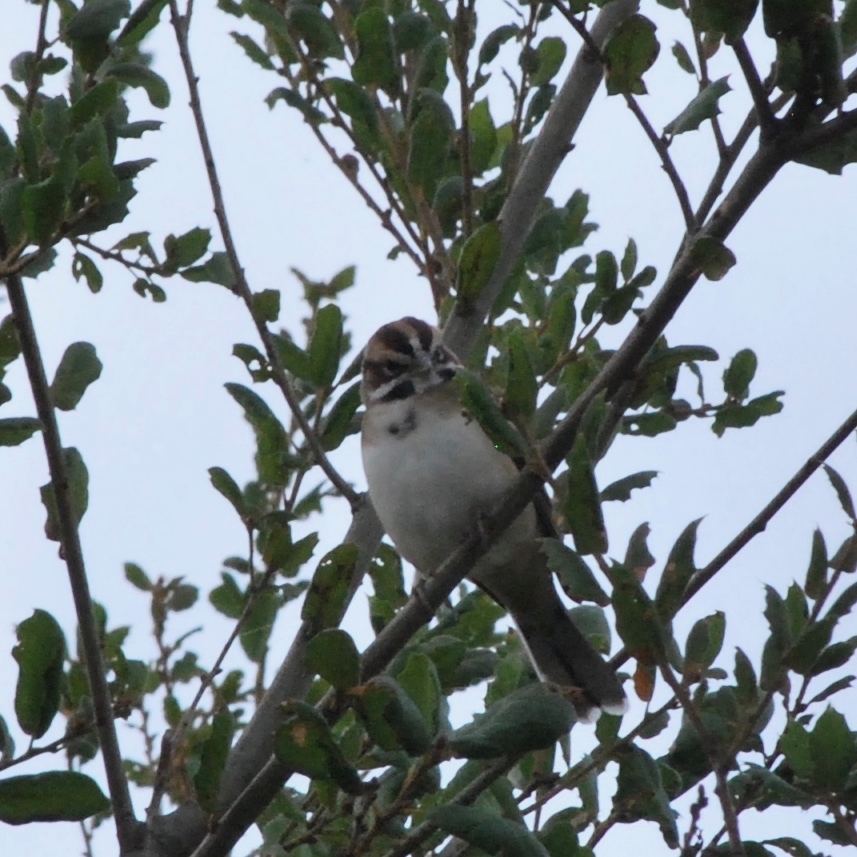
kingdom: Animalia
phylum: Chordata
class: Aves
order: Passeriformes
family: Passerellidae
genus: Chondestes
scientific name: Chondestes grammacus
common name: Lark sparrow
